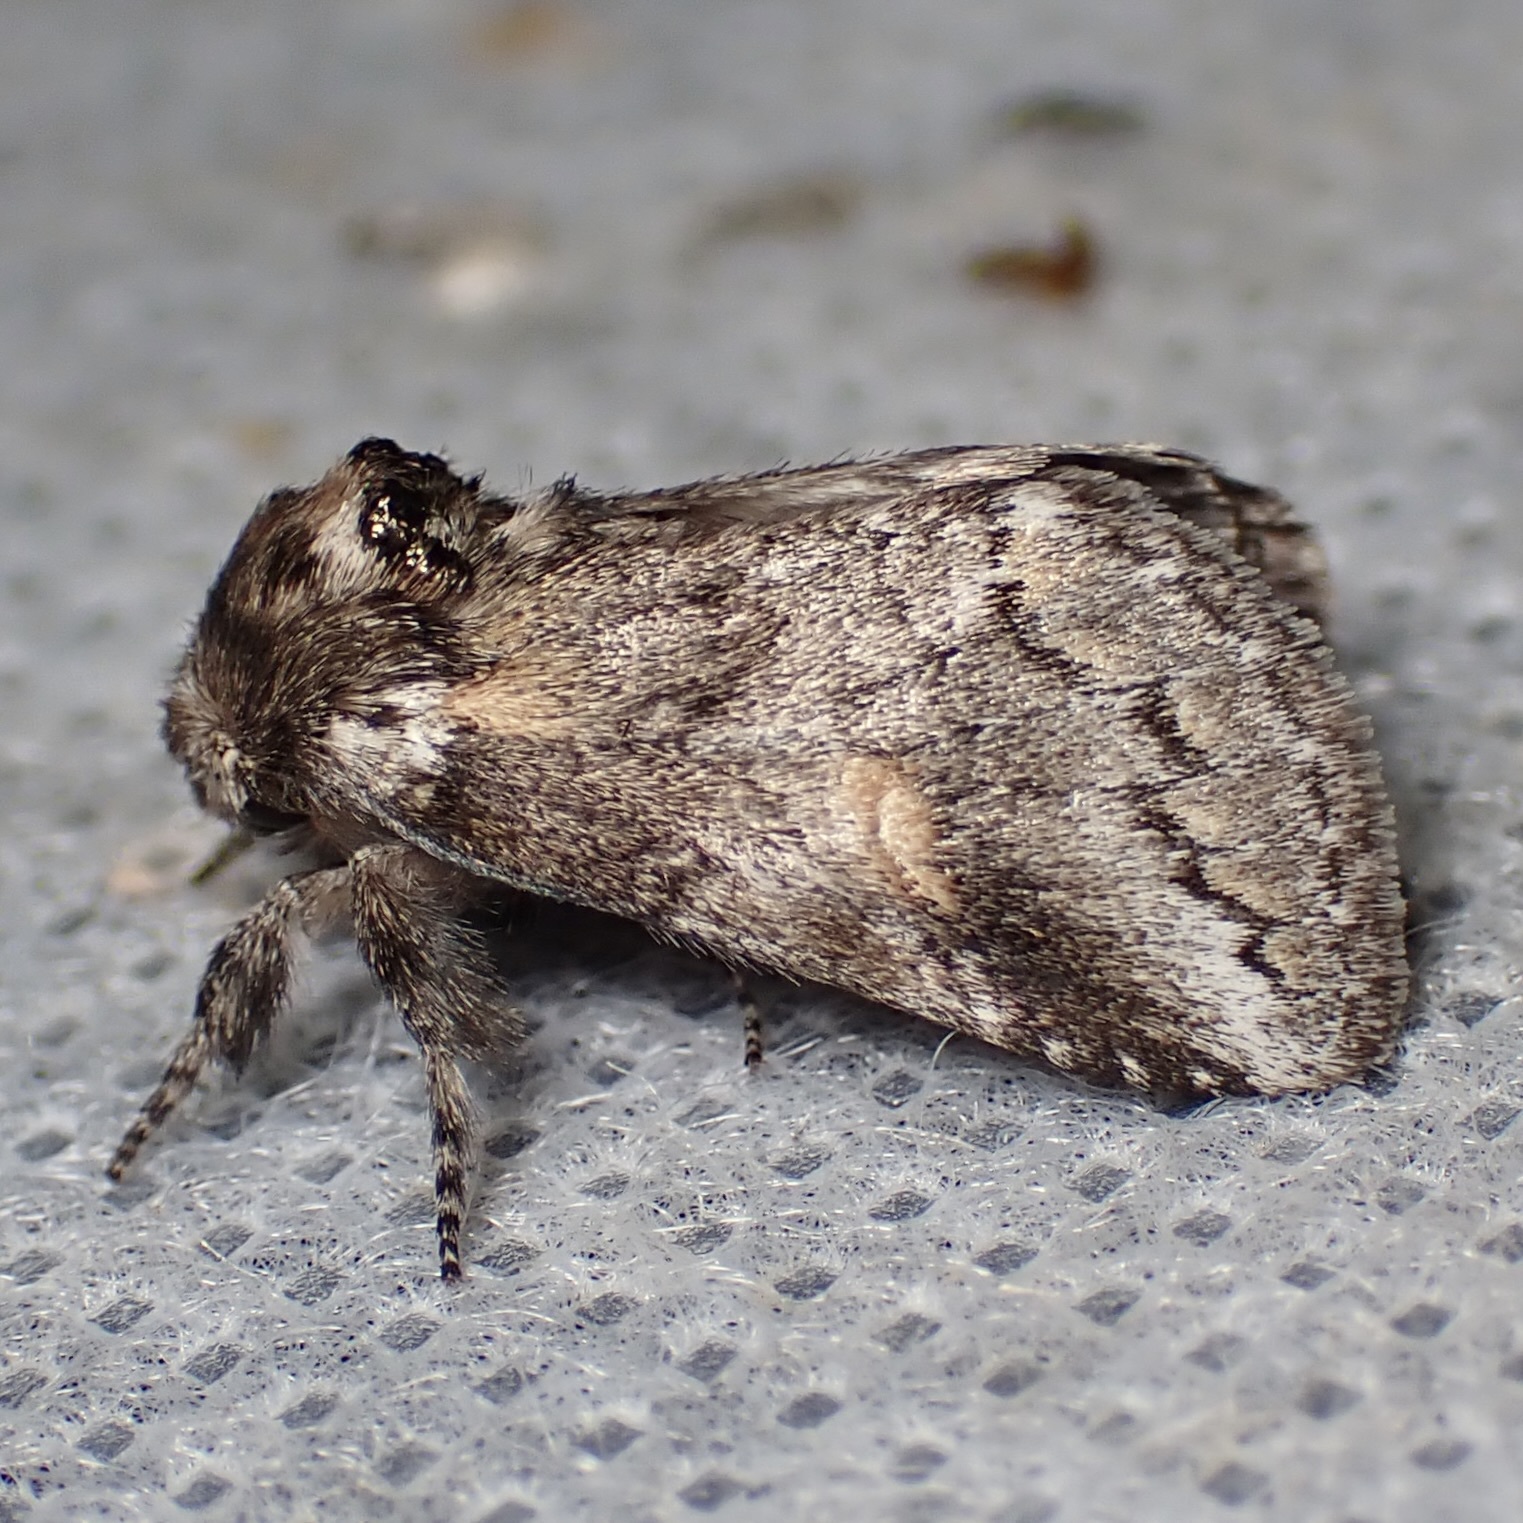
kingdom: Animalia
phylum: Arthropoda
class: Insecta
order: Lepidoptera
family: Notodontidae
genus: Kalkoma
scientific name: Kalkoma zapata
